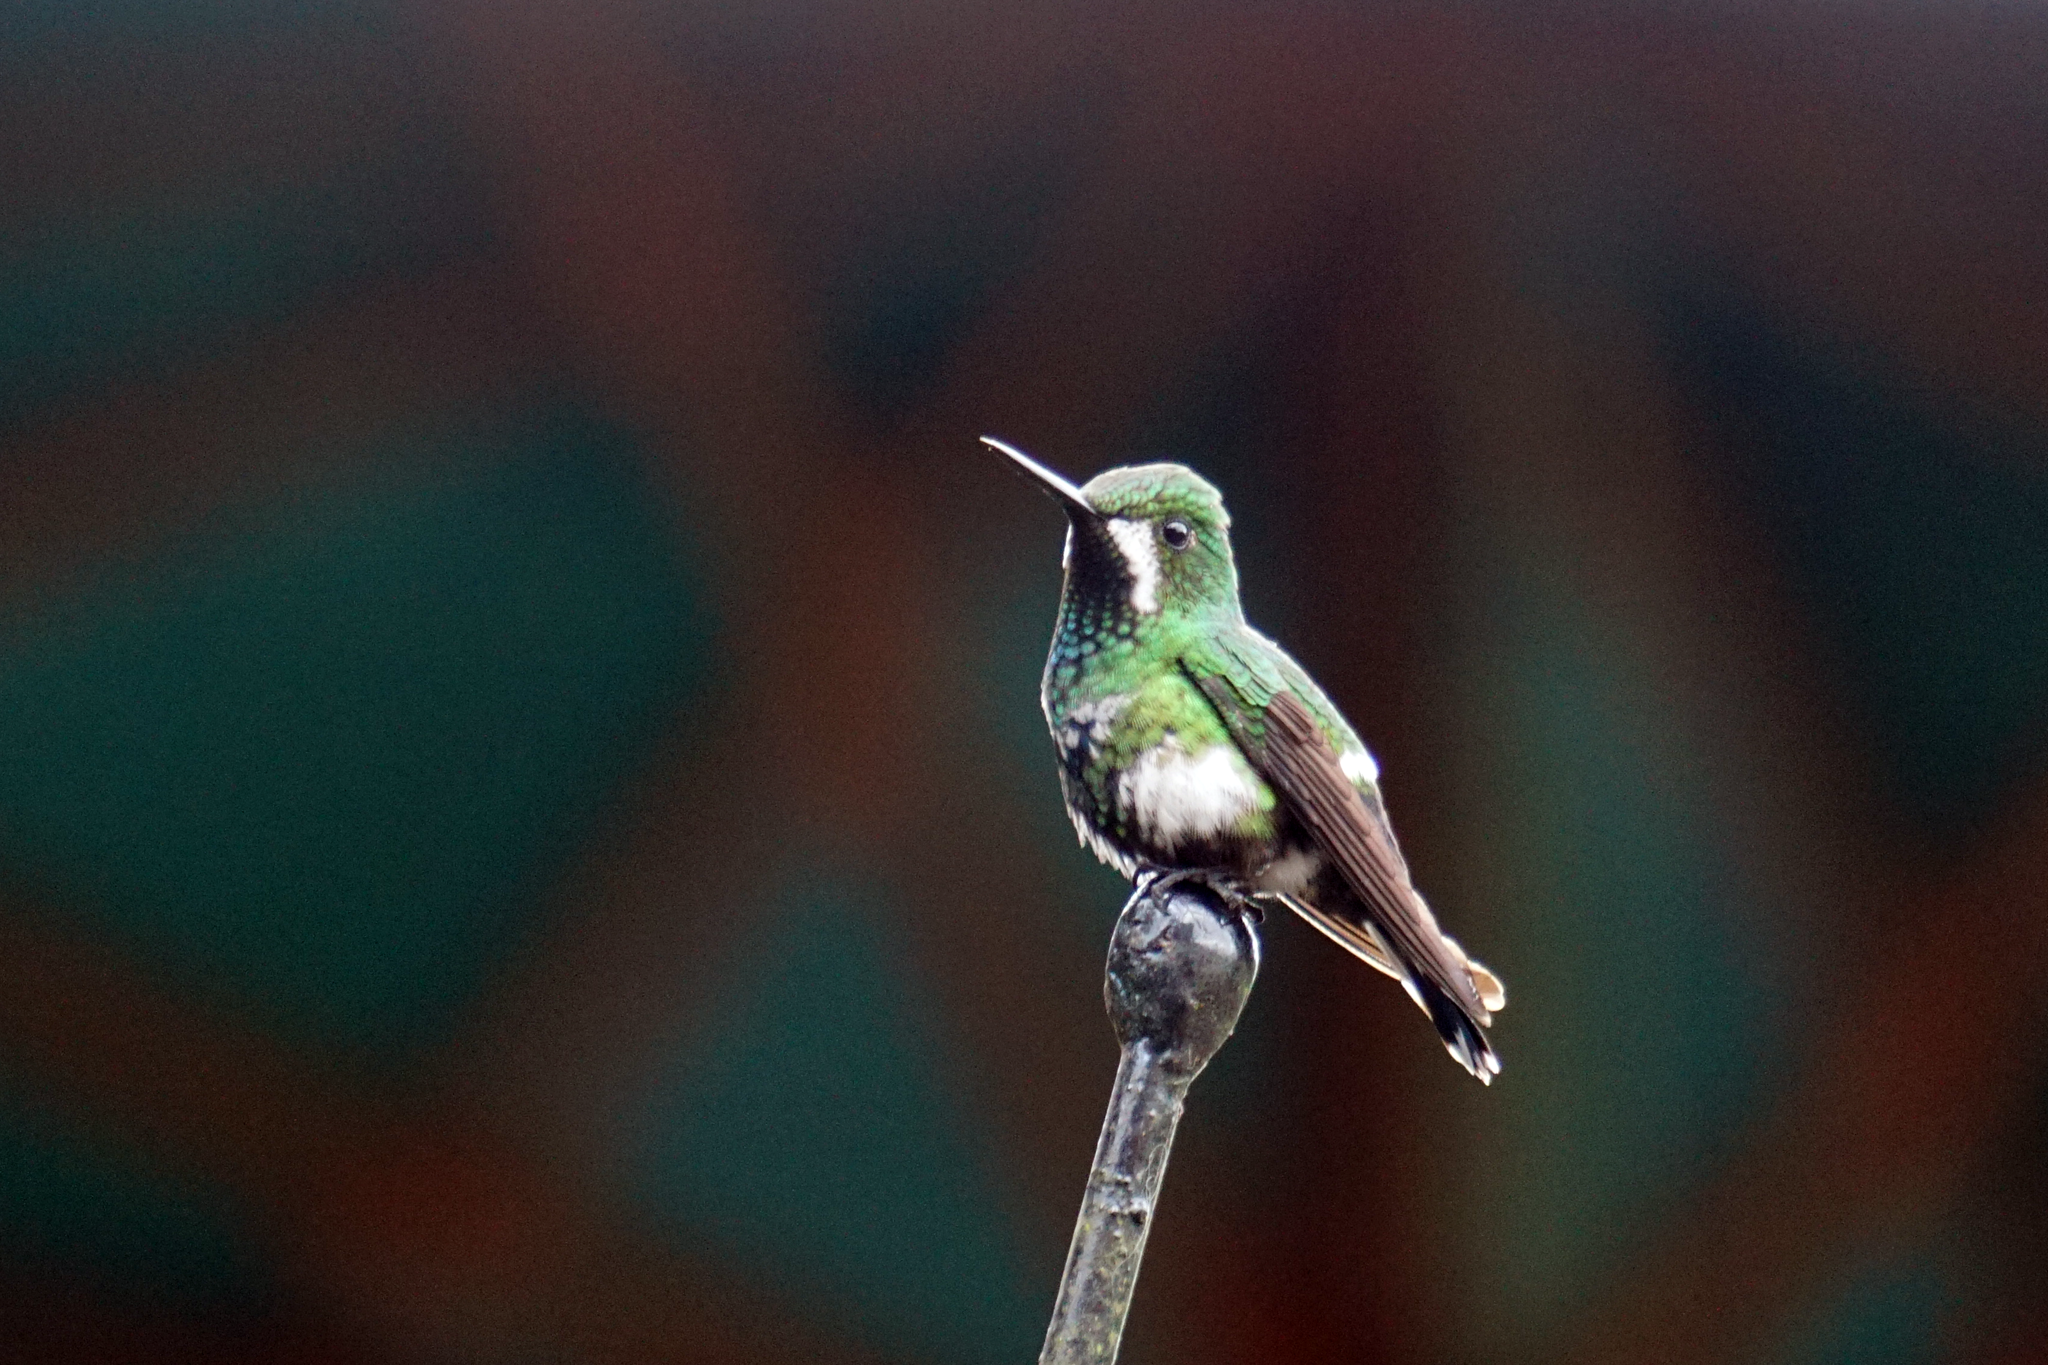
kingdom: Animalia
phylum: Chordata
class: Aves
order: Apodiformes
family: Trochilidae
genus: Discosura
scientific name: Discosura conversii
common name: Green thorntail
